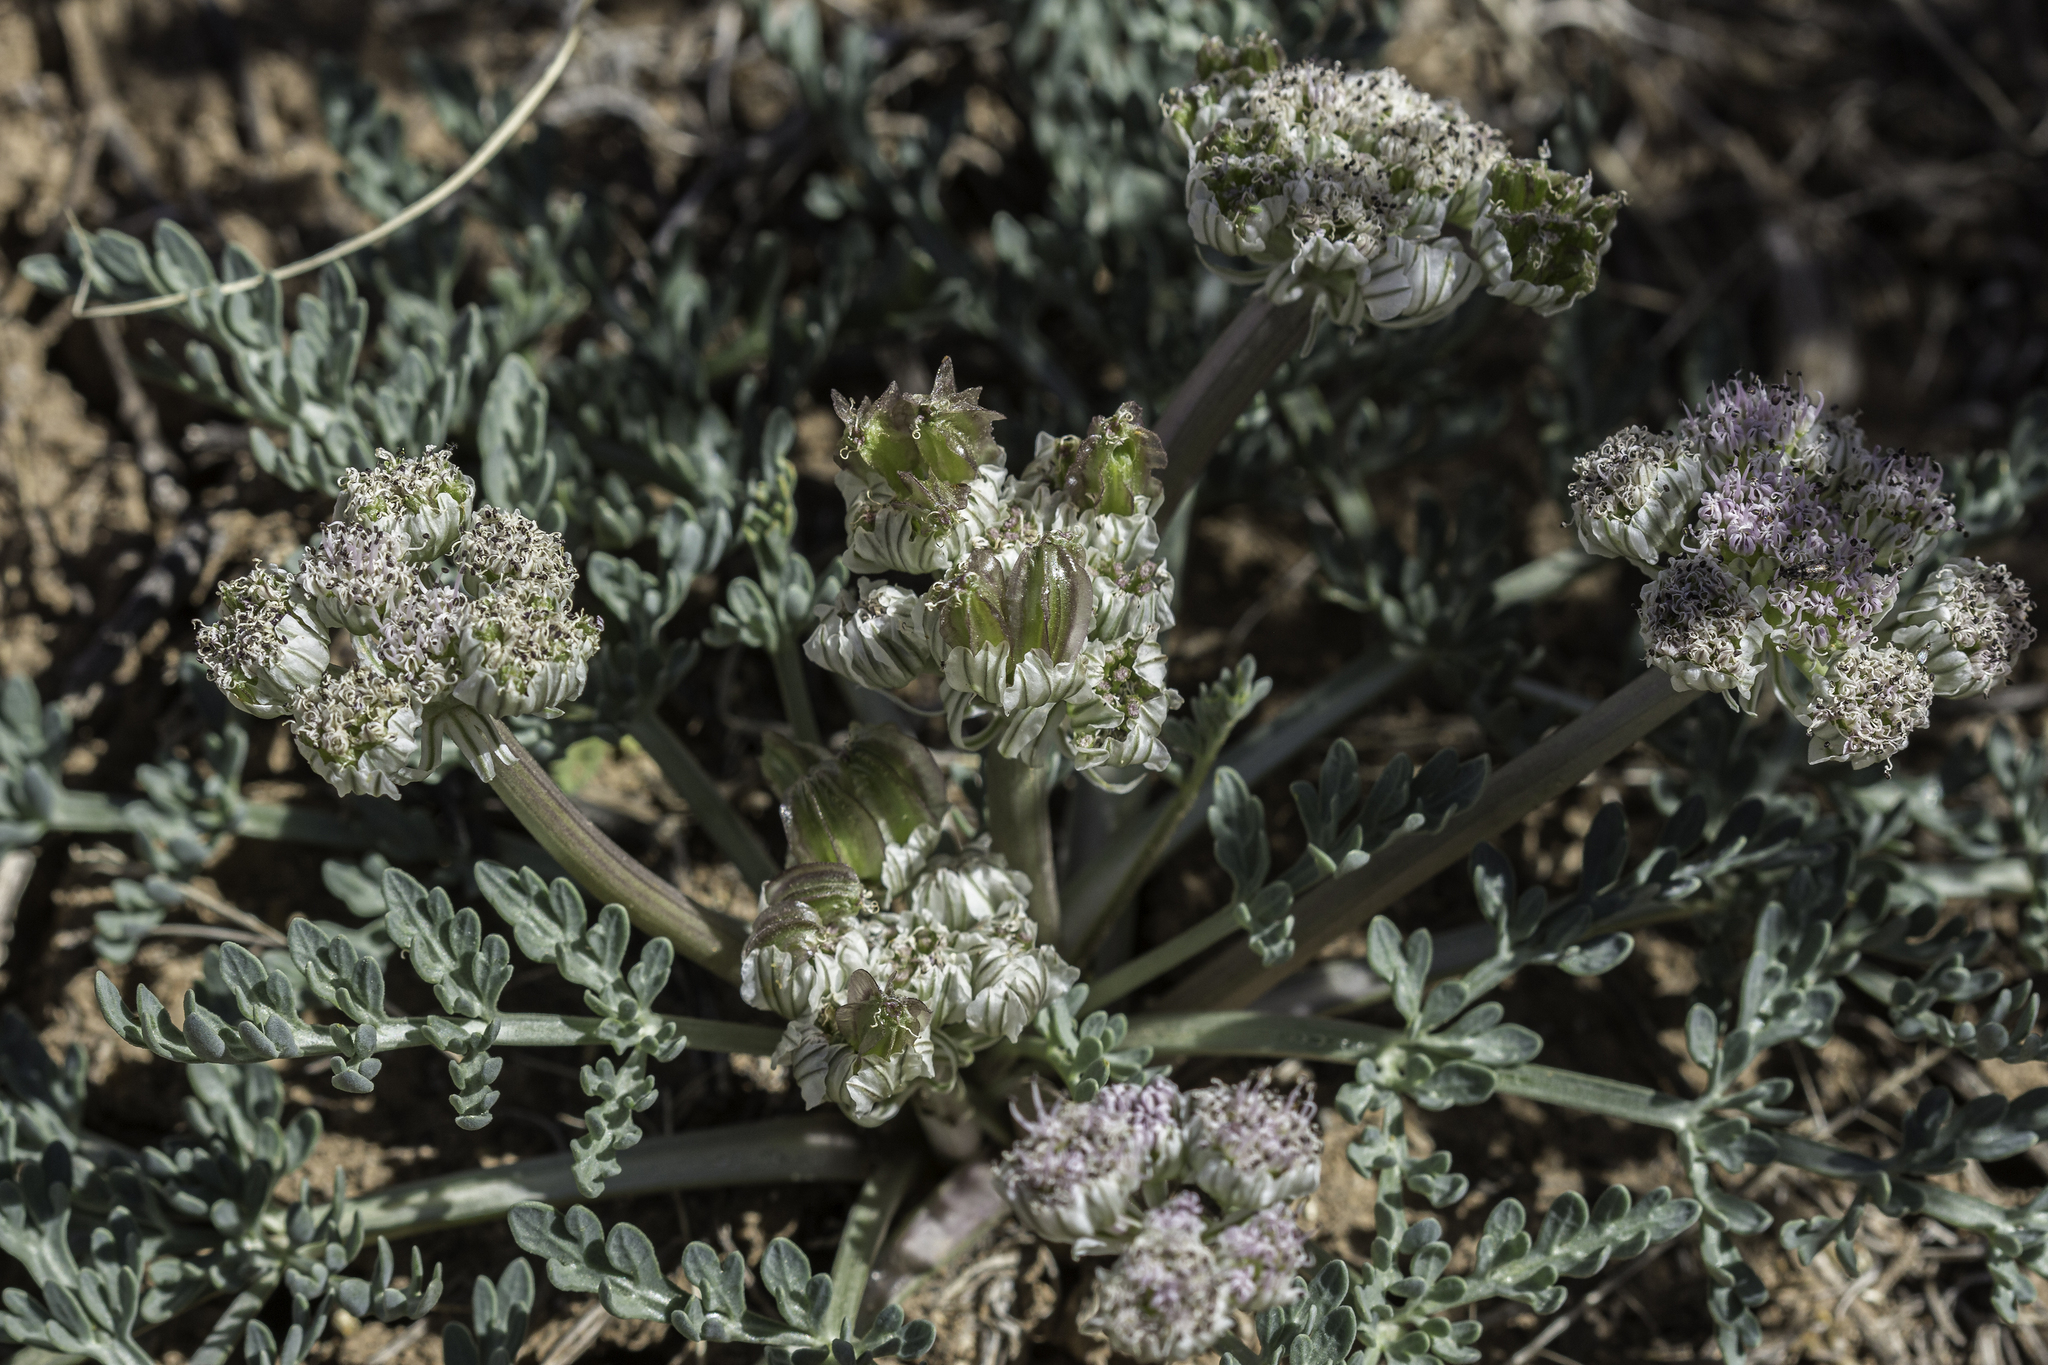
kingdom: Plantae
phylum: Tracheophyta
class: Magnoliopsida
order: Apiales
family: Apiaceae
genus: Vesper
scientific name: Vesper constancei
